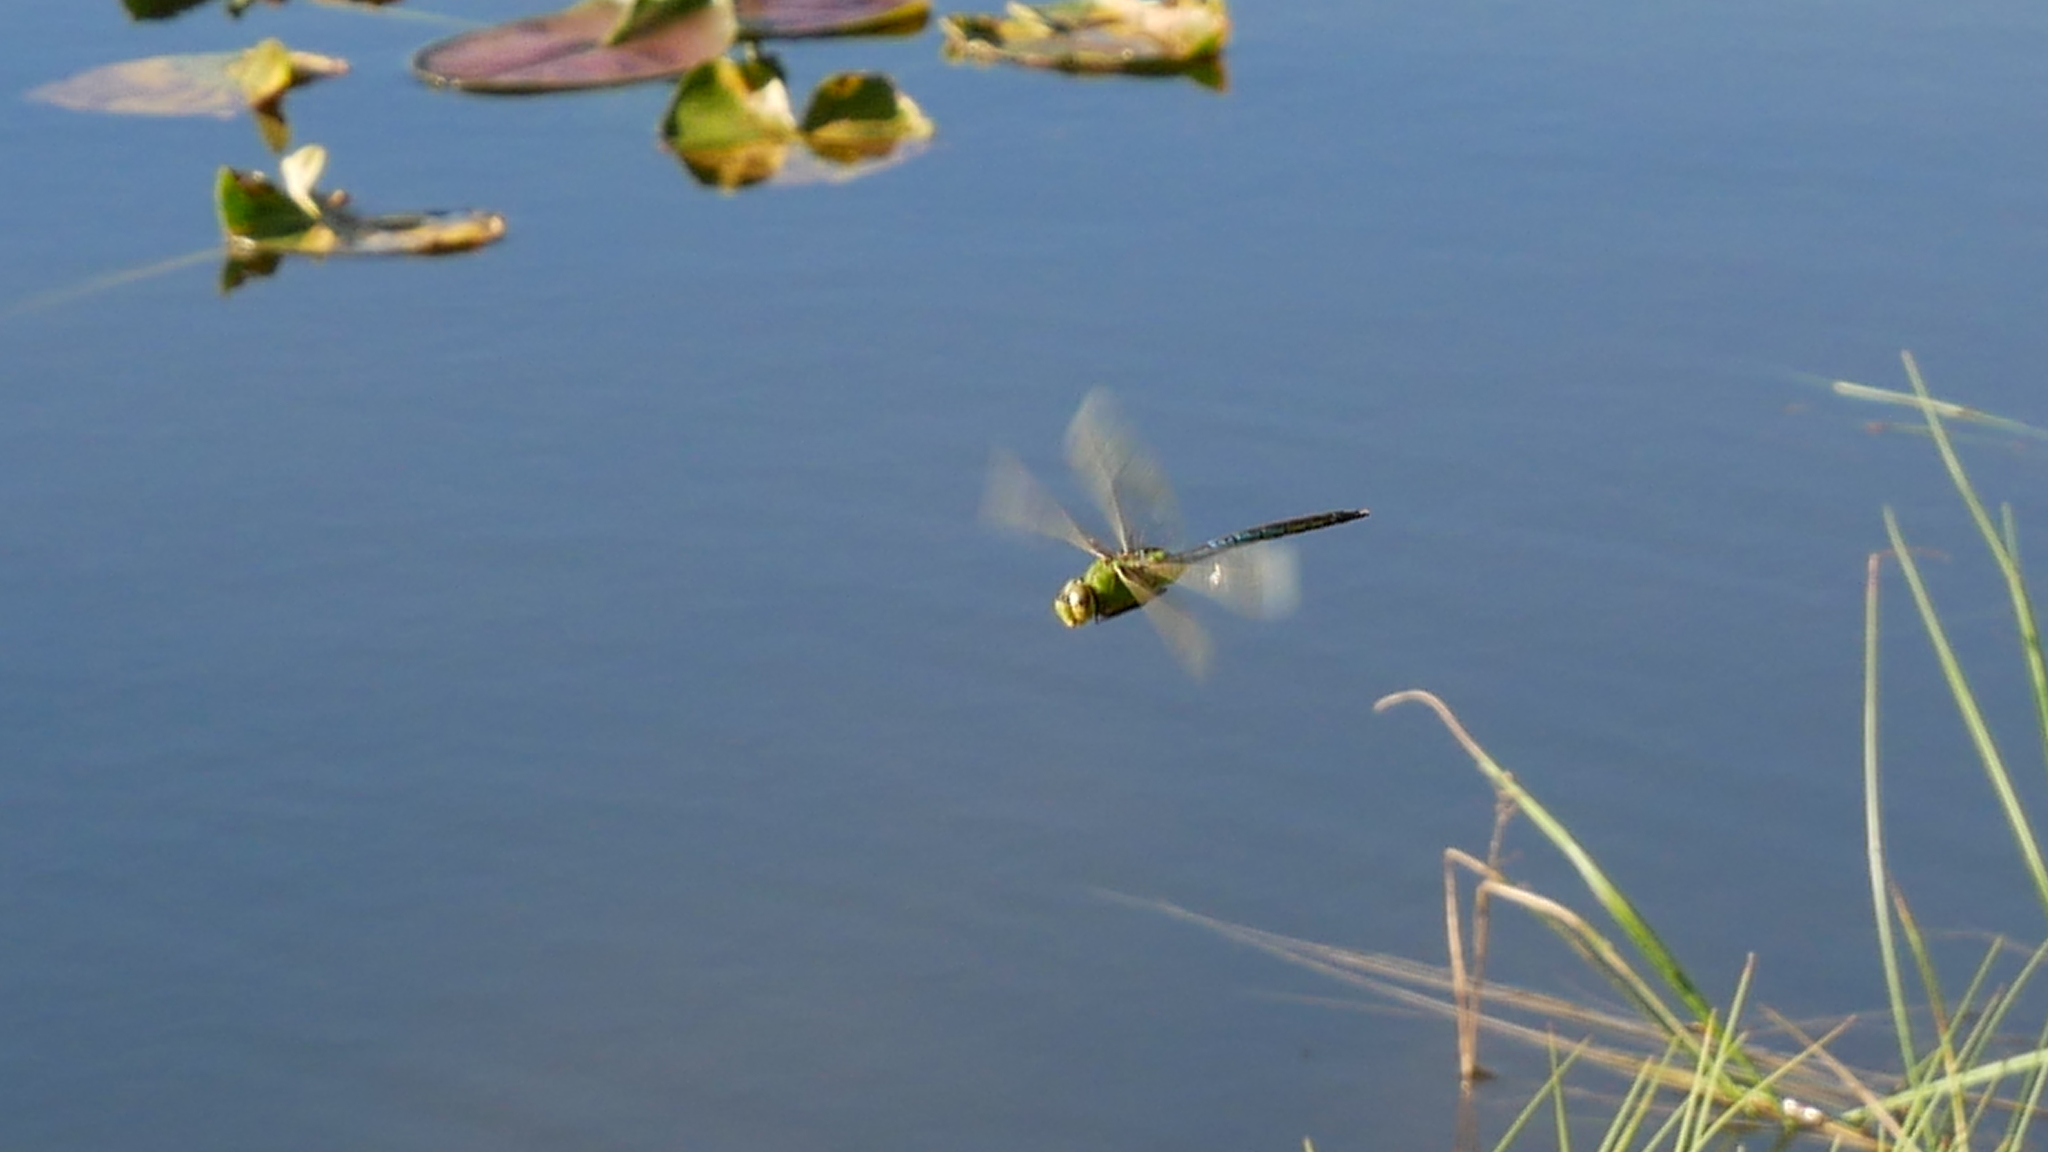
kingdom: Animalia
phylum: Arthropoda
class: Insecta
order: Odonata
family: Aeshnidae
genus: Anax
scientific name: Anax junius
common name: Common green darner
